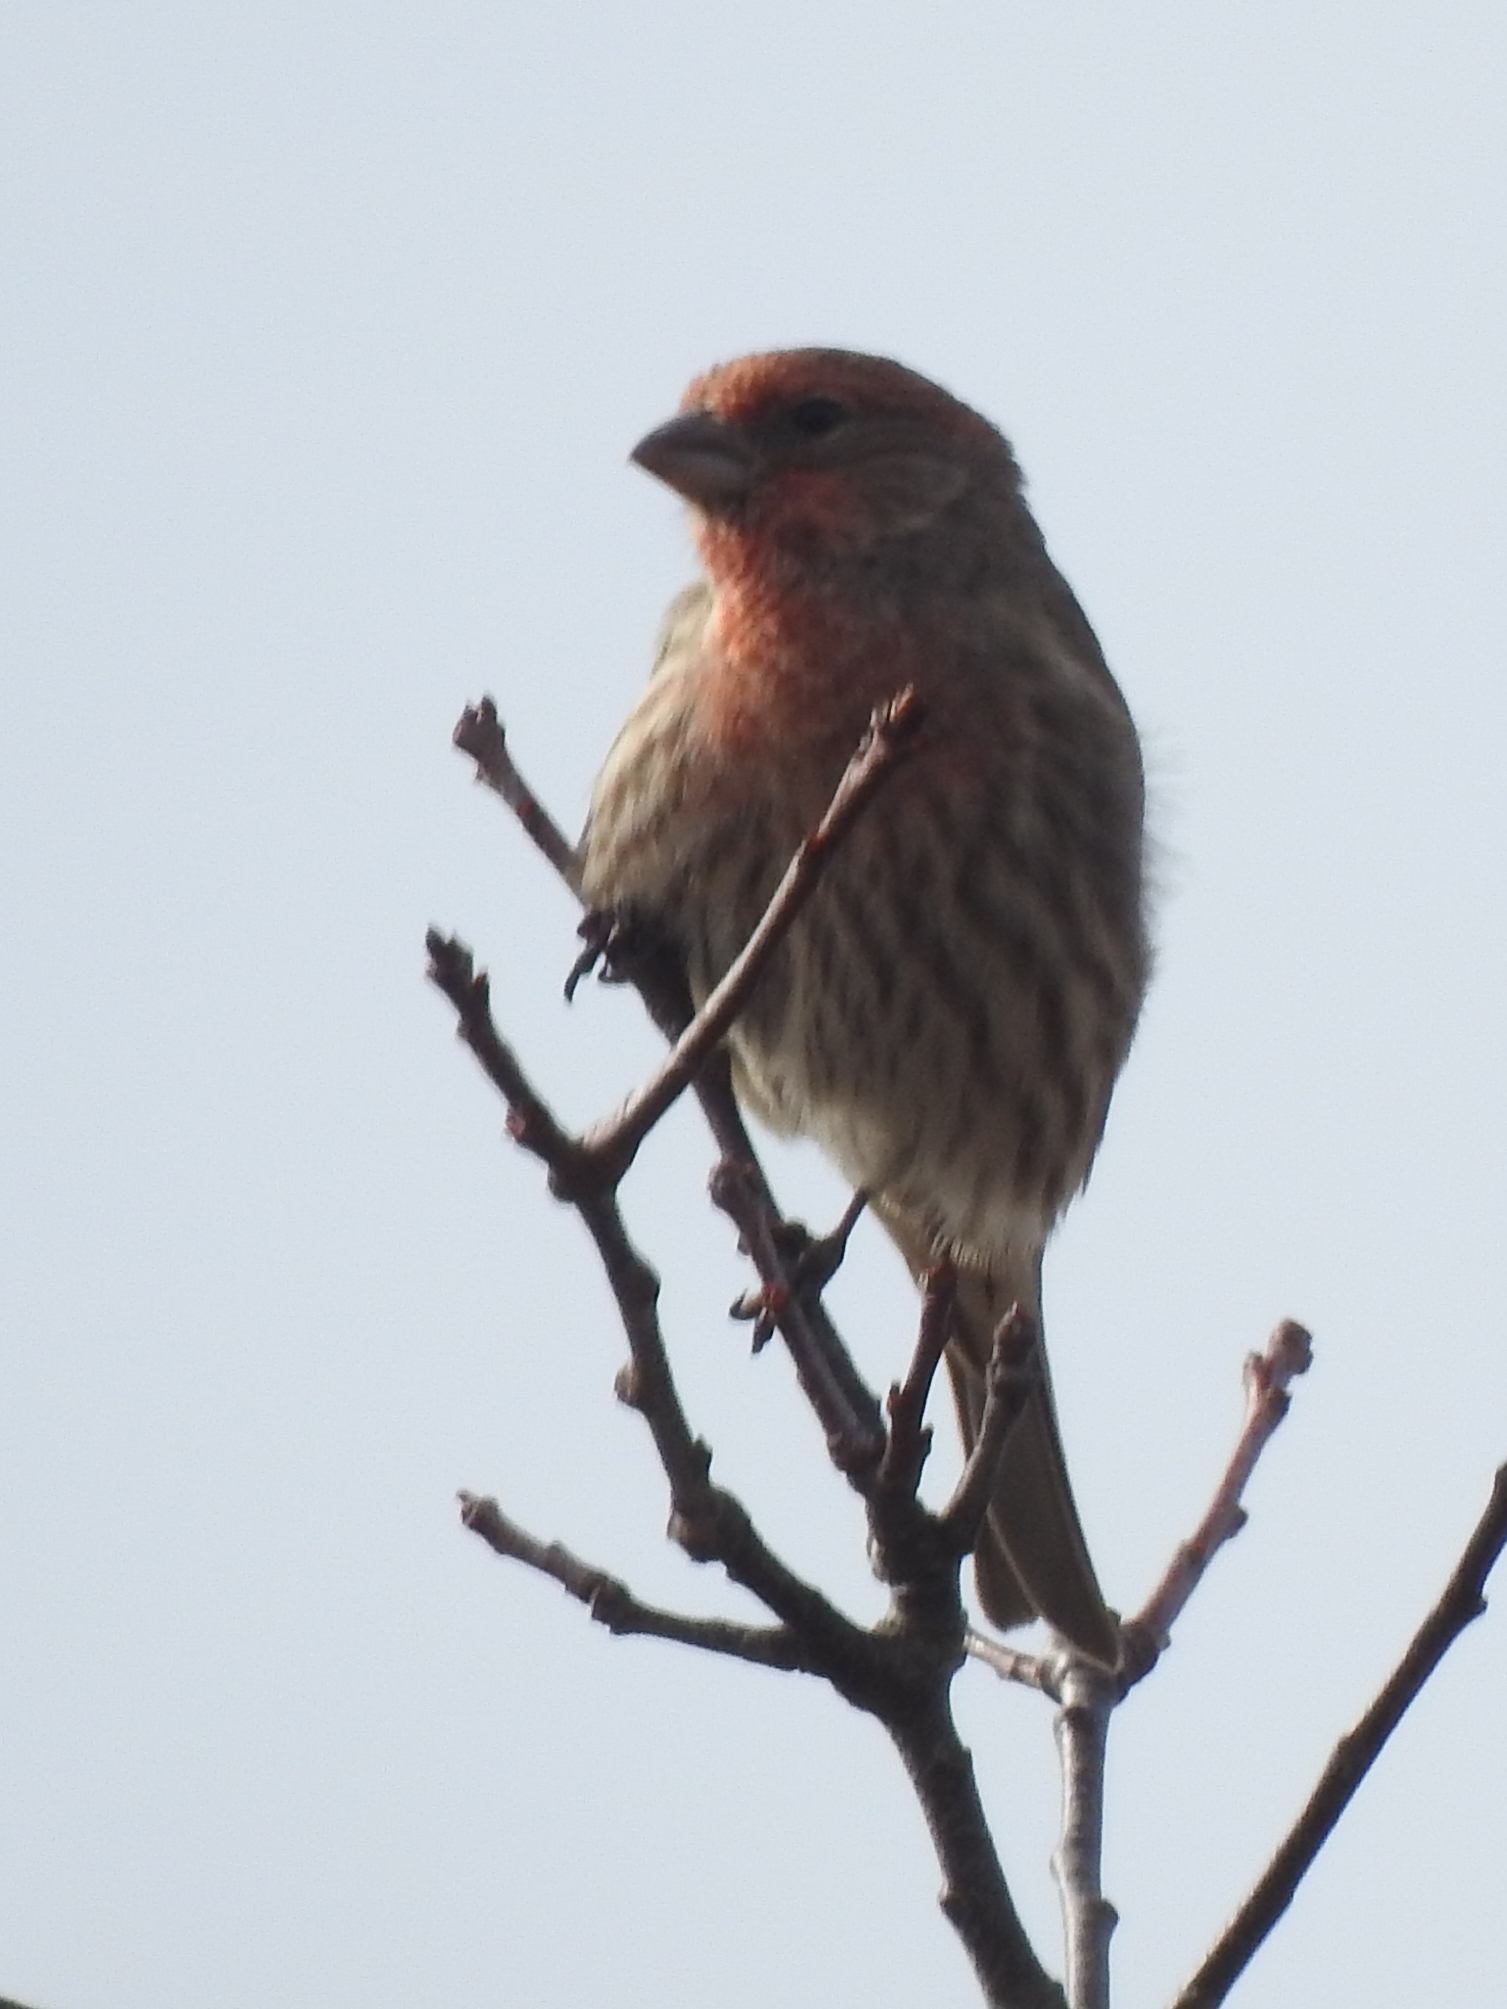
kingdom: Animalia
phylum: Chordata
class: Aves
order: Passeriformes
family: Fringillidae
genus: Haemorhous
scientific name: Haemorhous mexicanus
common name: House finch
